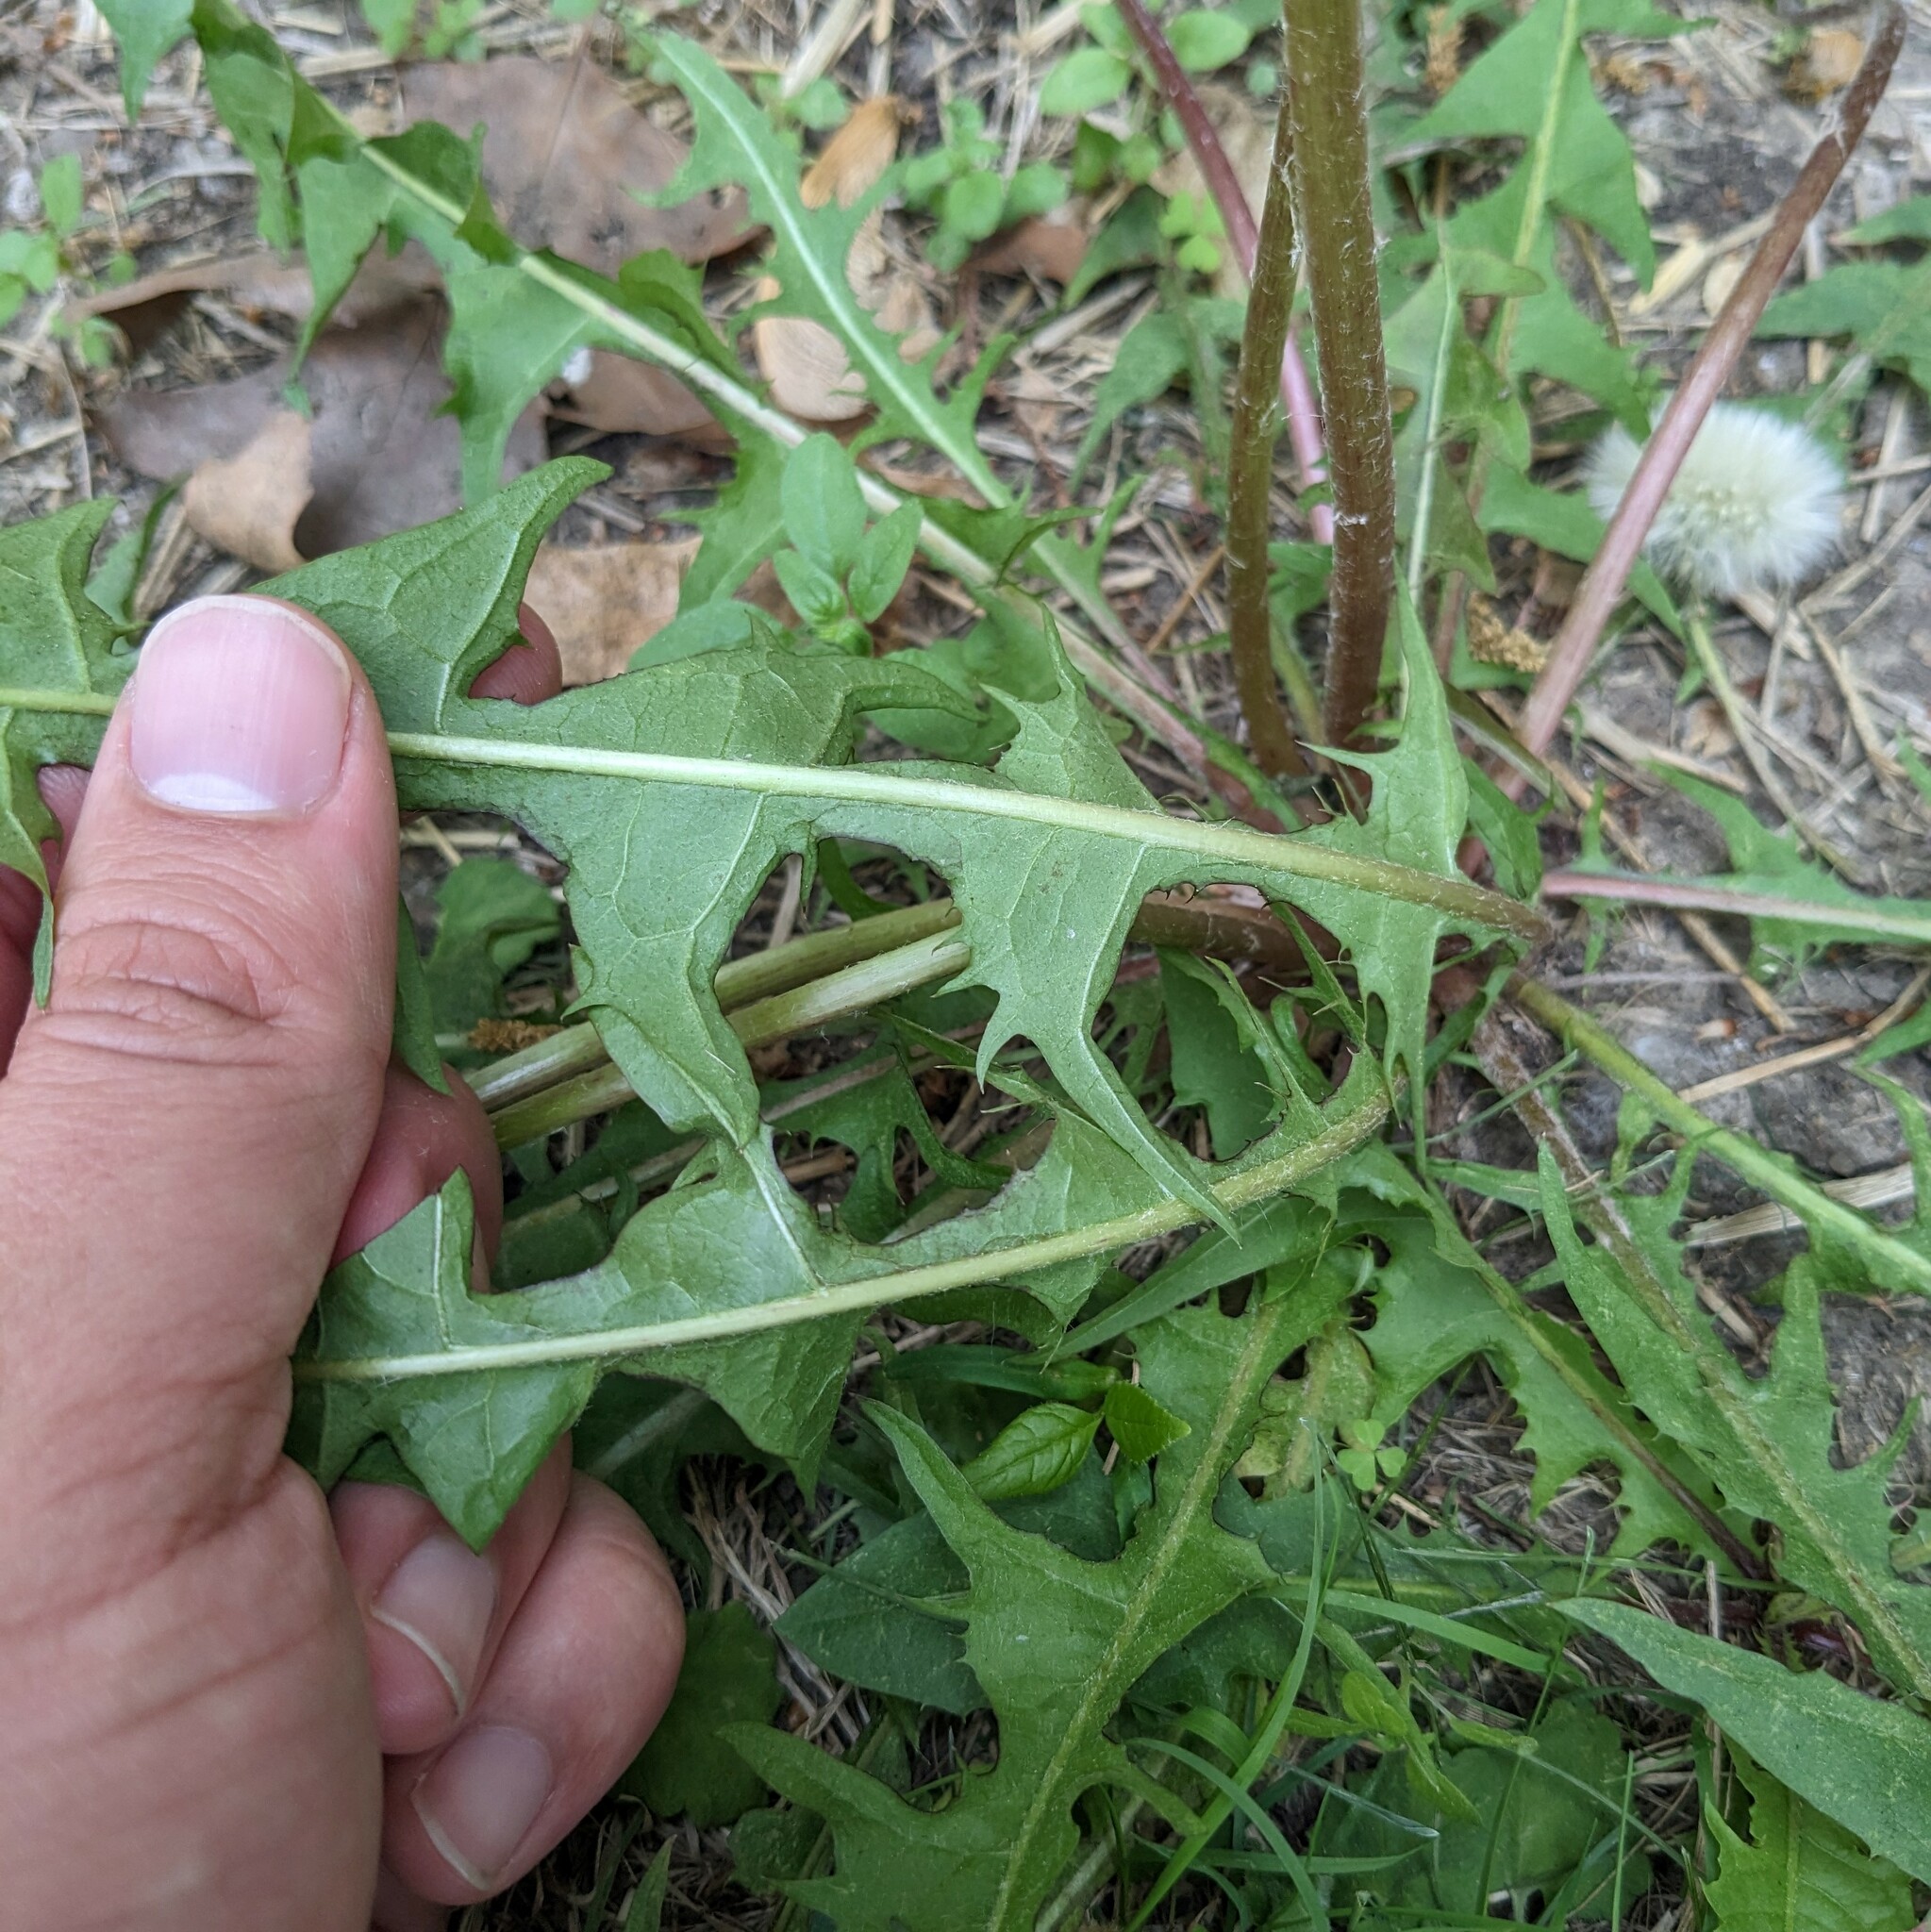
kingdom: Plantae
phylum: Tracheophyta
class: Magnoliopsida
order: Asterales
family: Asteraceae
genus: Taraxacum
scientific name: Taraxacum officinale
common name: Common dandelion
